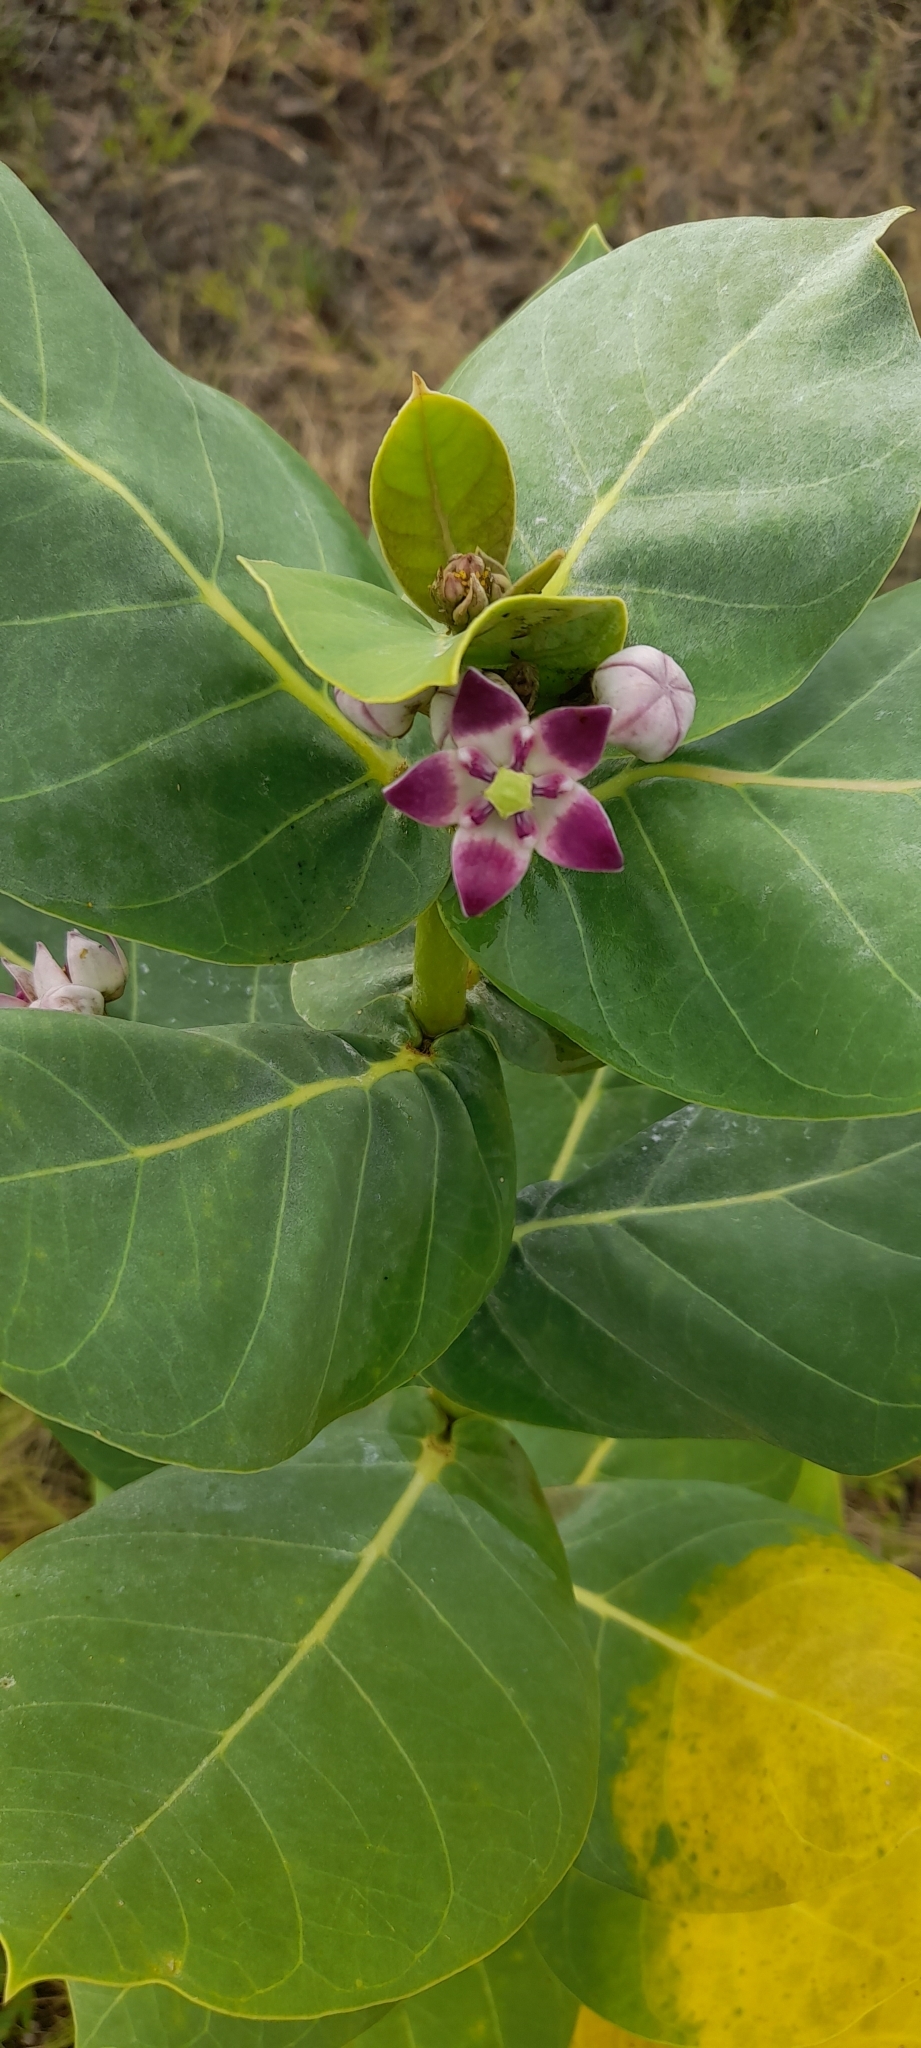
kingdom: Plantae
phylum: Tracheophyta
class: Magnoliopsida
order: Gentianales
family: Apocynaceae
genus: Calotropis
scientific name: Calotropis procera
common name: Roostertree
